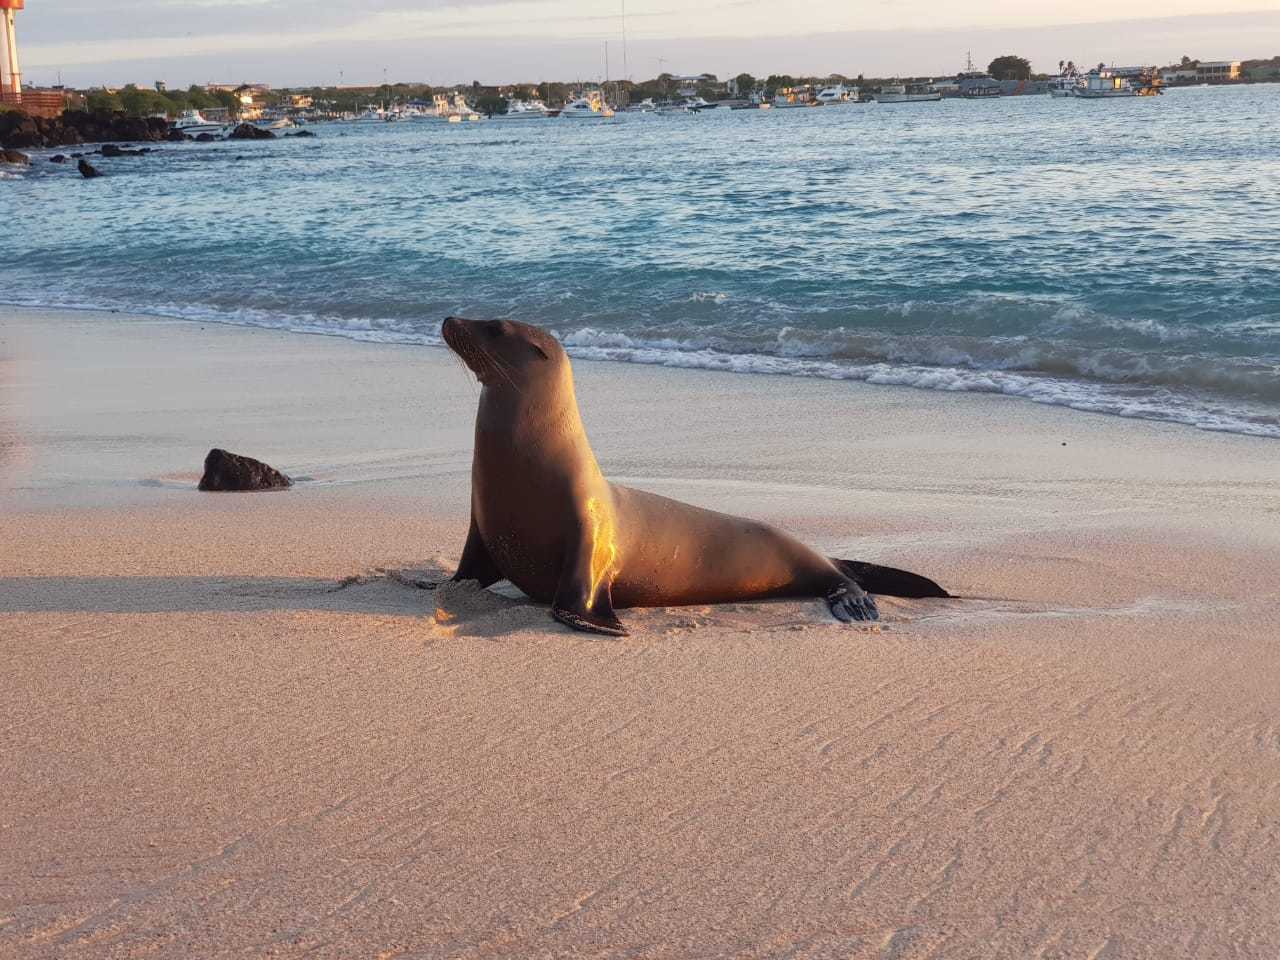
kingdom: Animalia
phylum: Chordata
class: Mammalia
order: Carnivora
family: Otariidae
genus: Zalophus
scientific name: Zalophus wollebaeki
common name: Galapagos sea lion
